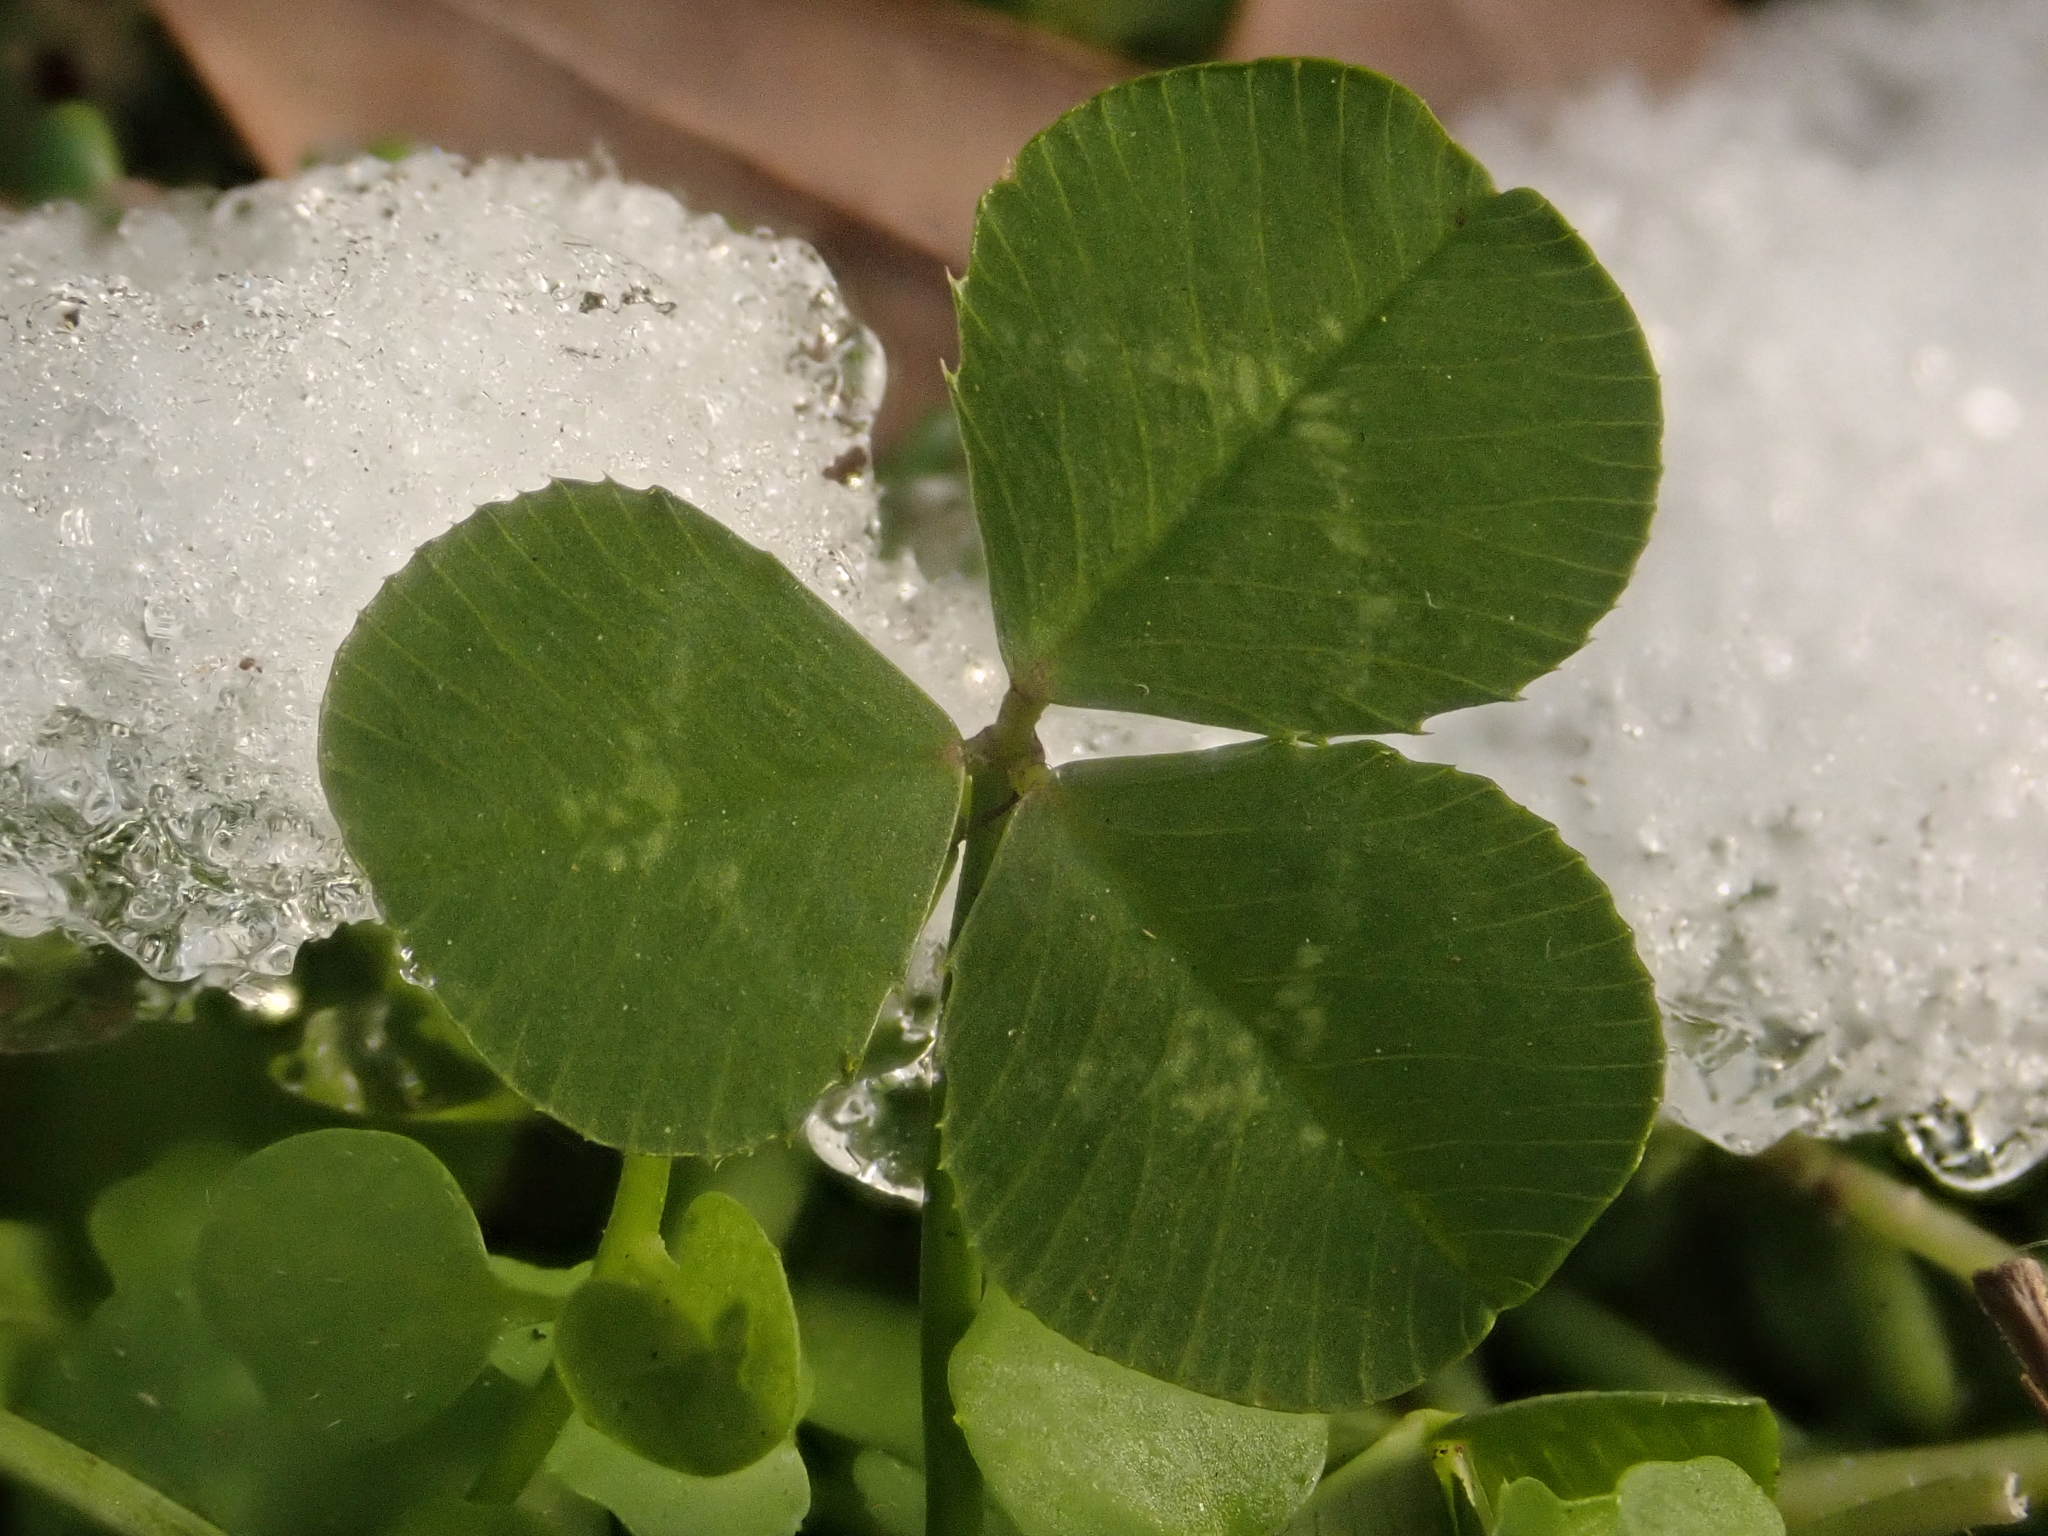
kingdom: Plantae
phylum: Tracheophyta
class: Magnoliopsida
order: Fabales
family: Fabaceae
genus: Trifolium
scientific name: Trifolium repens
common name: White clover
